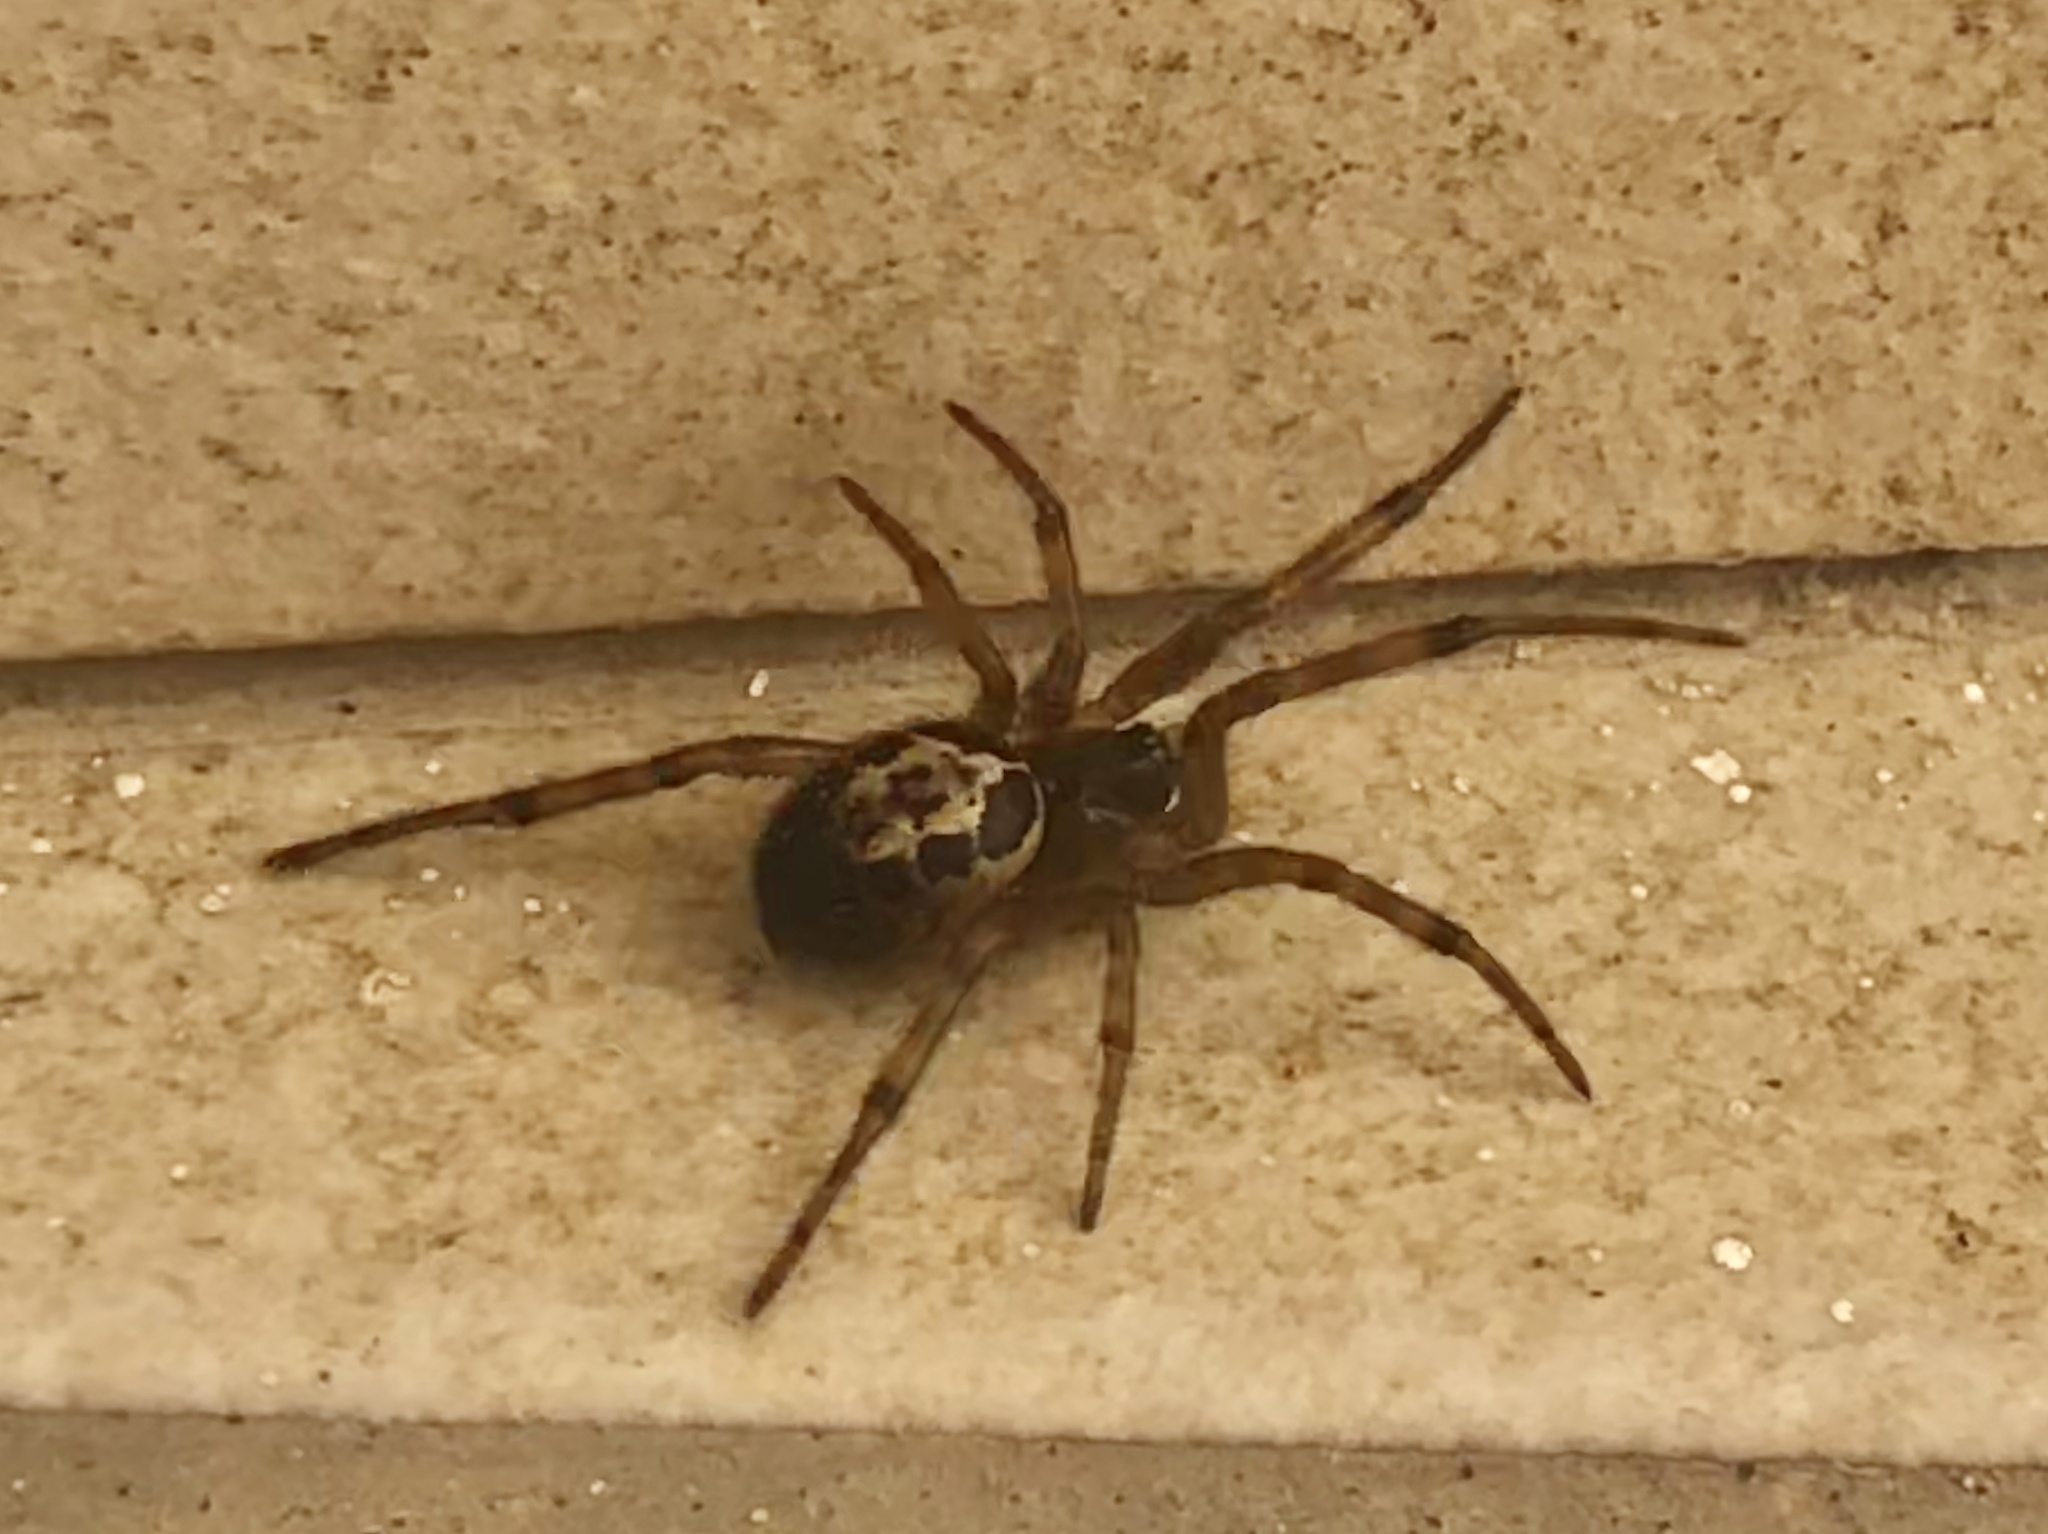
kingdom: Animalia
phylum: Arthropoda
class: Arachnida
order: Araneae
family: Theridiidae
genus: Steatoda
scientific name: Steatoda nobilis
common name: Cobweb weaver
